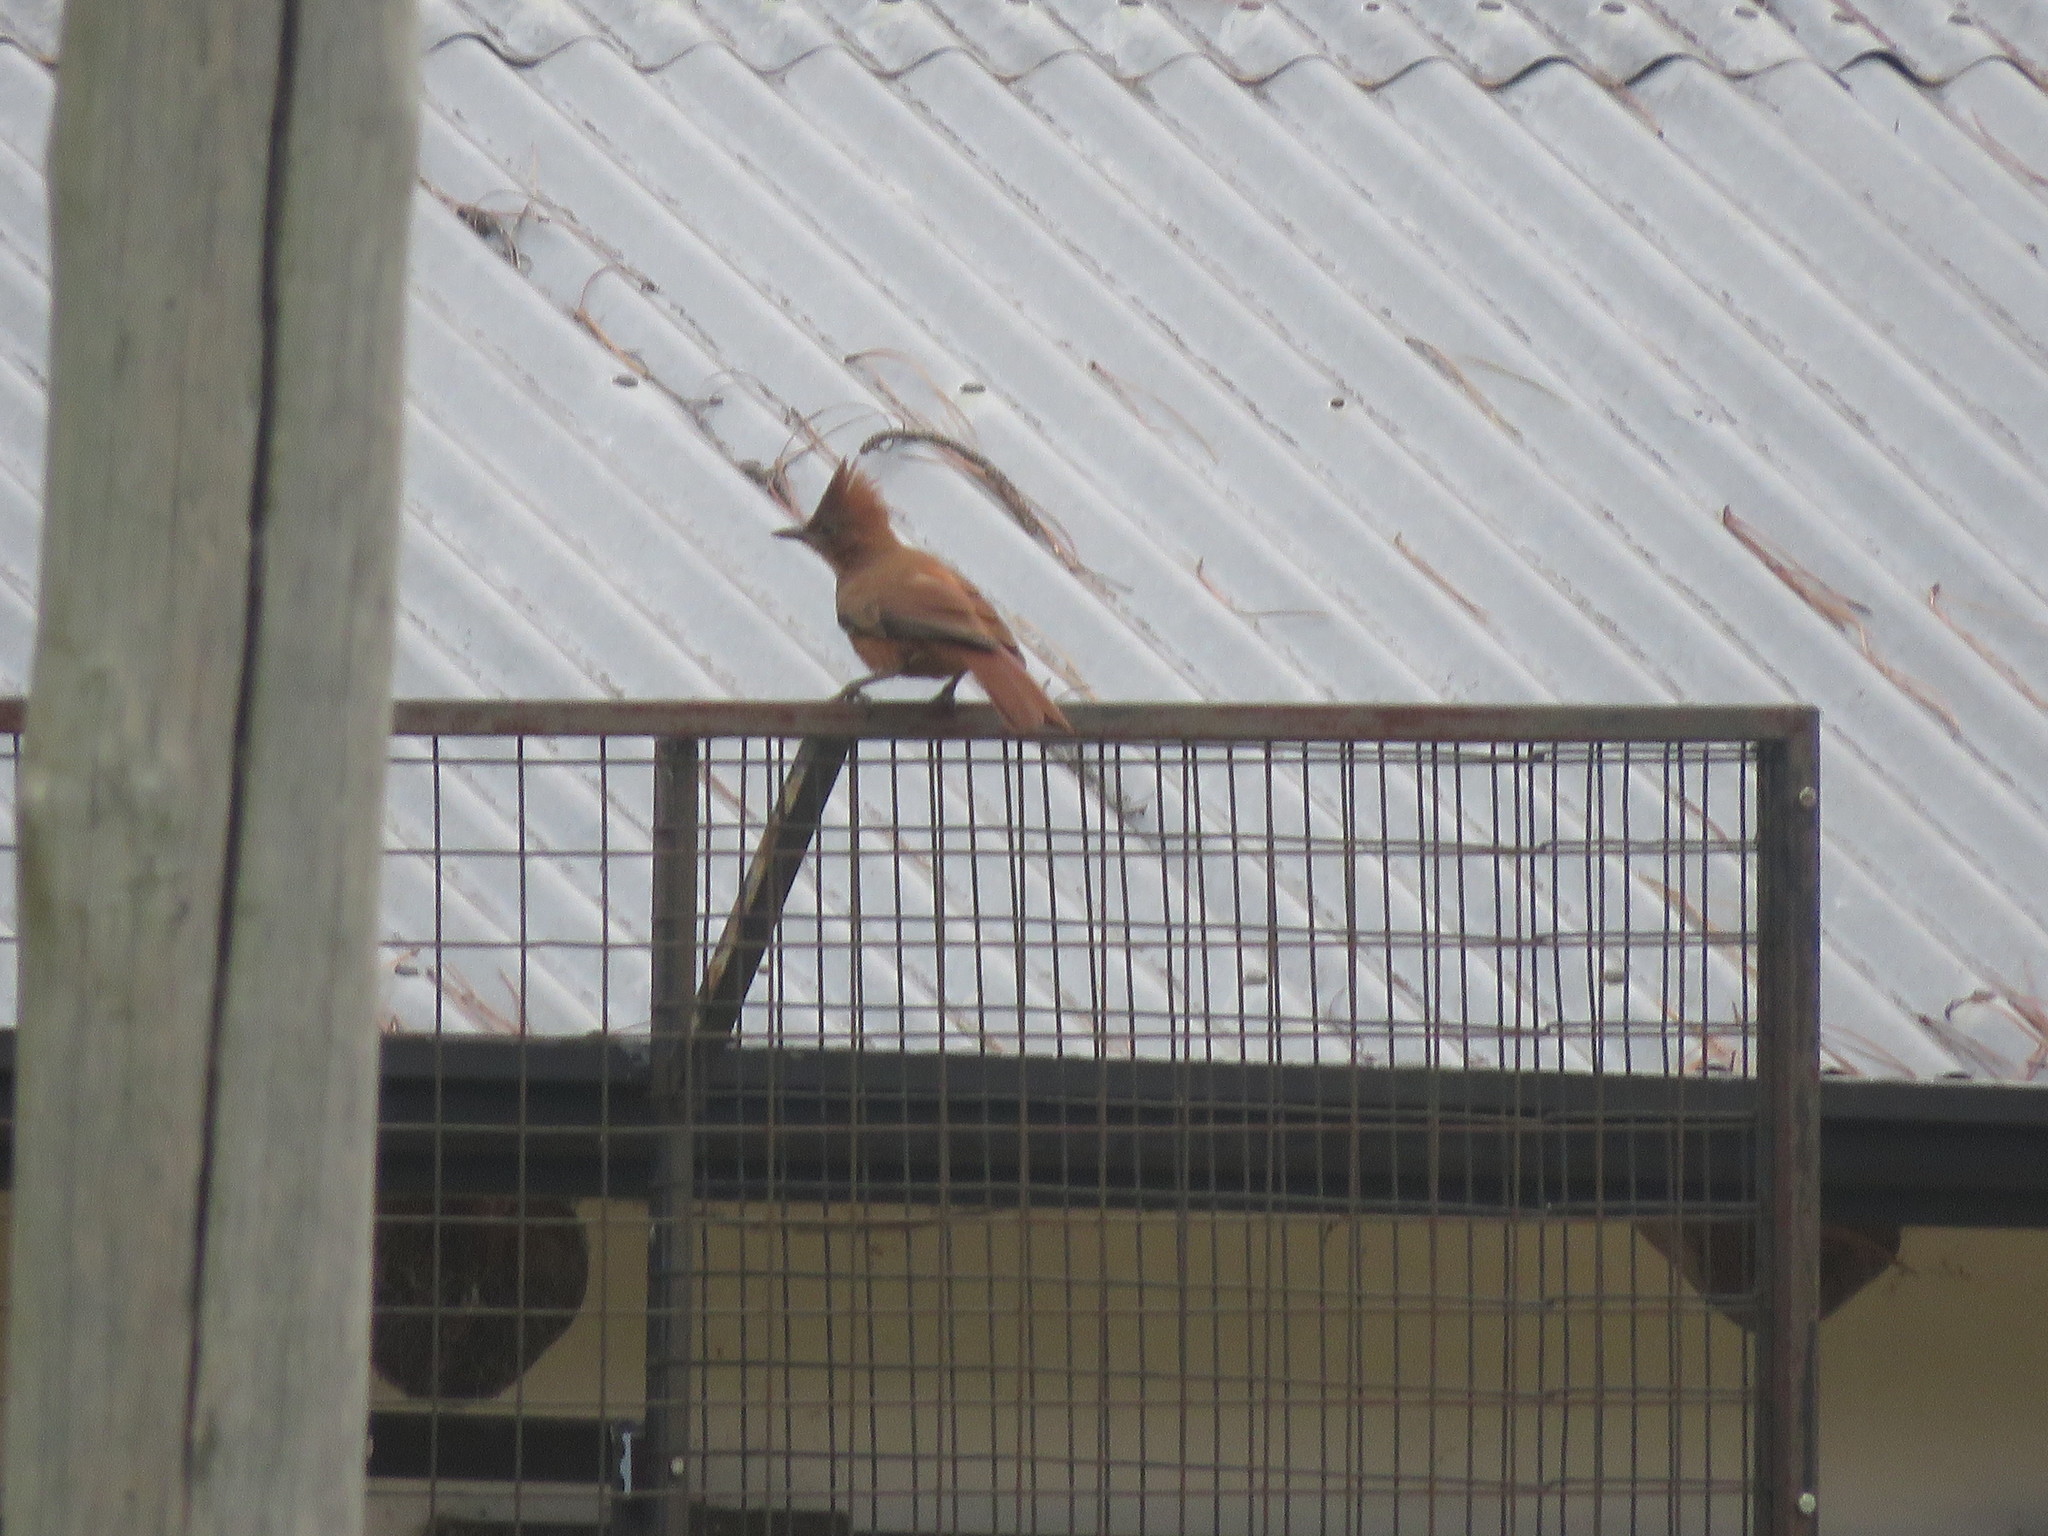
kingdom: Animalia
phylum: Chordata
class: Aves
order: Passeriformes
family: Furnariidae
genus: Pseudoseisura
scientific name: Pseudoseisura lophotes
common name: Brown cacholote
